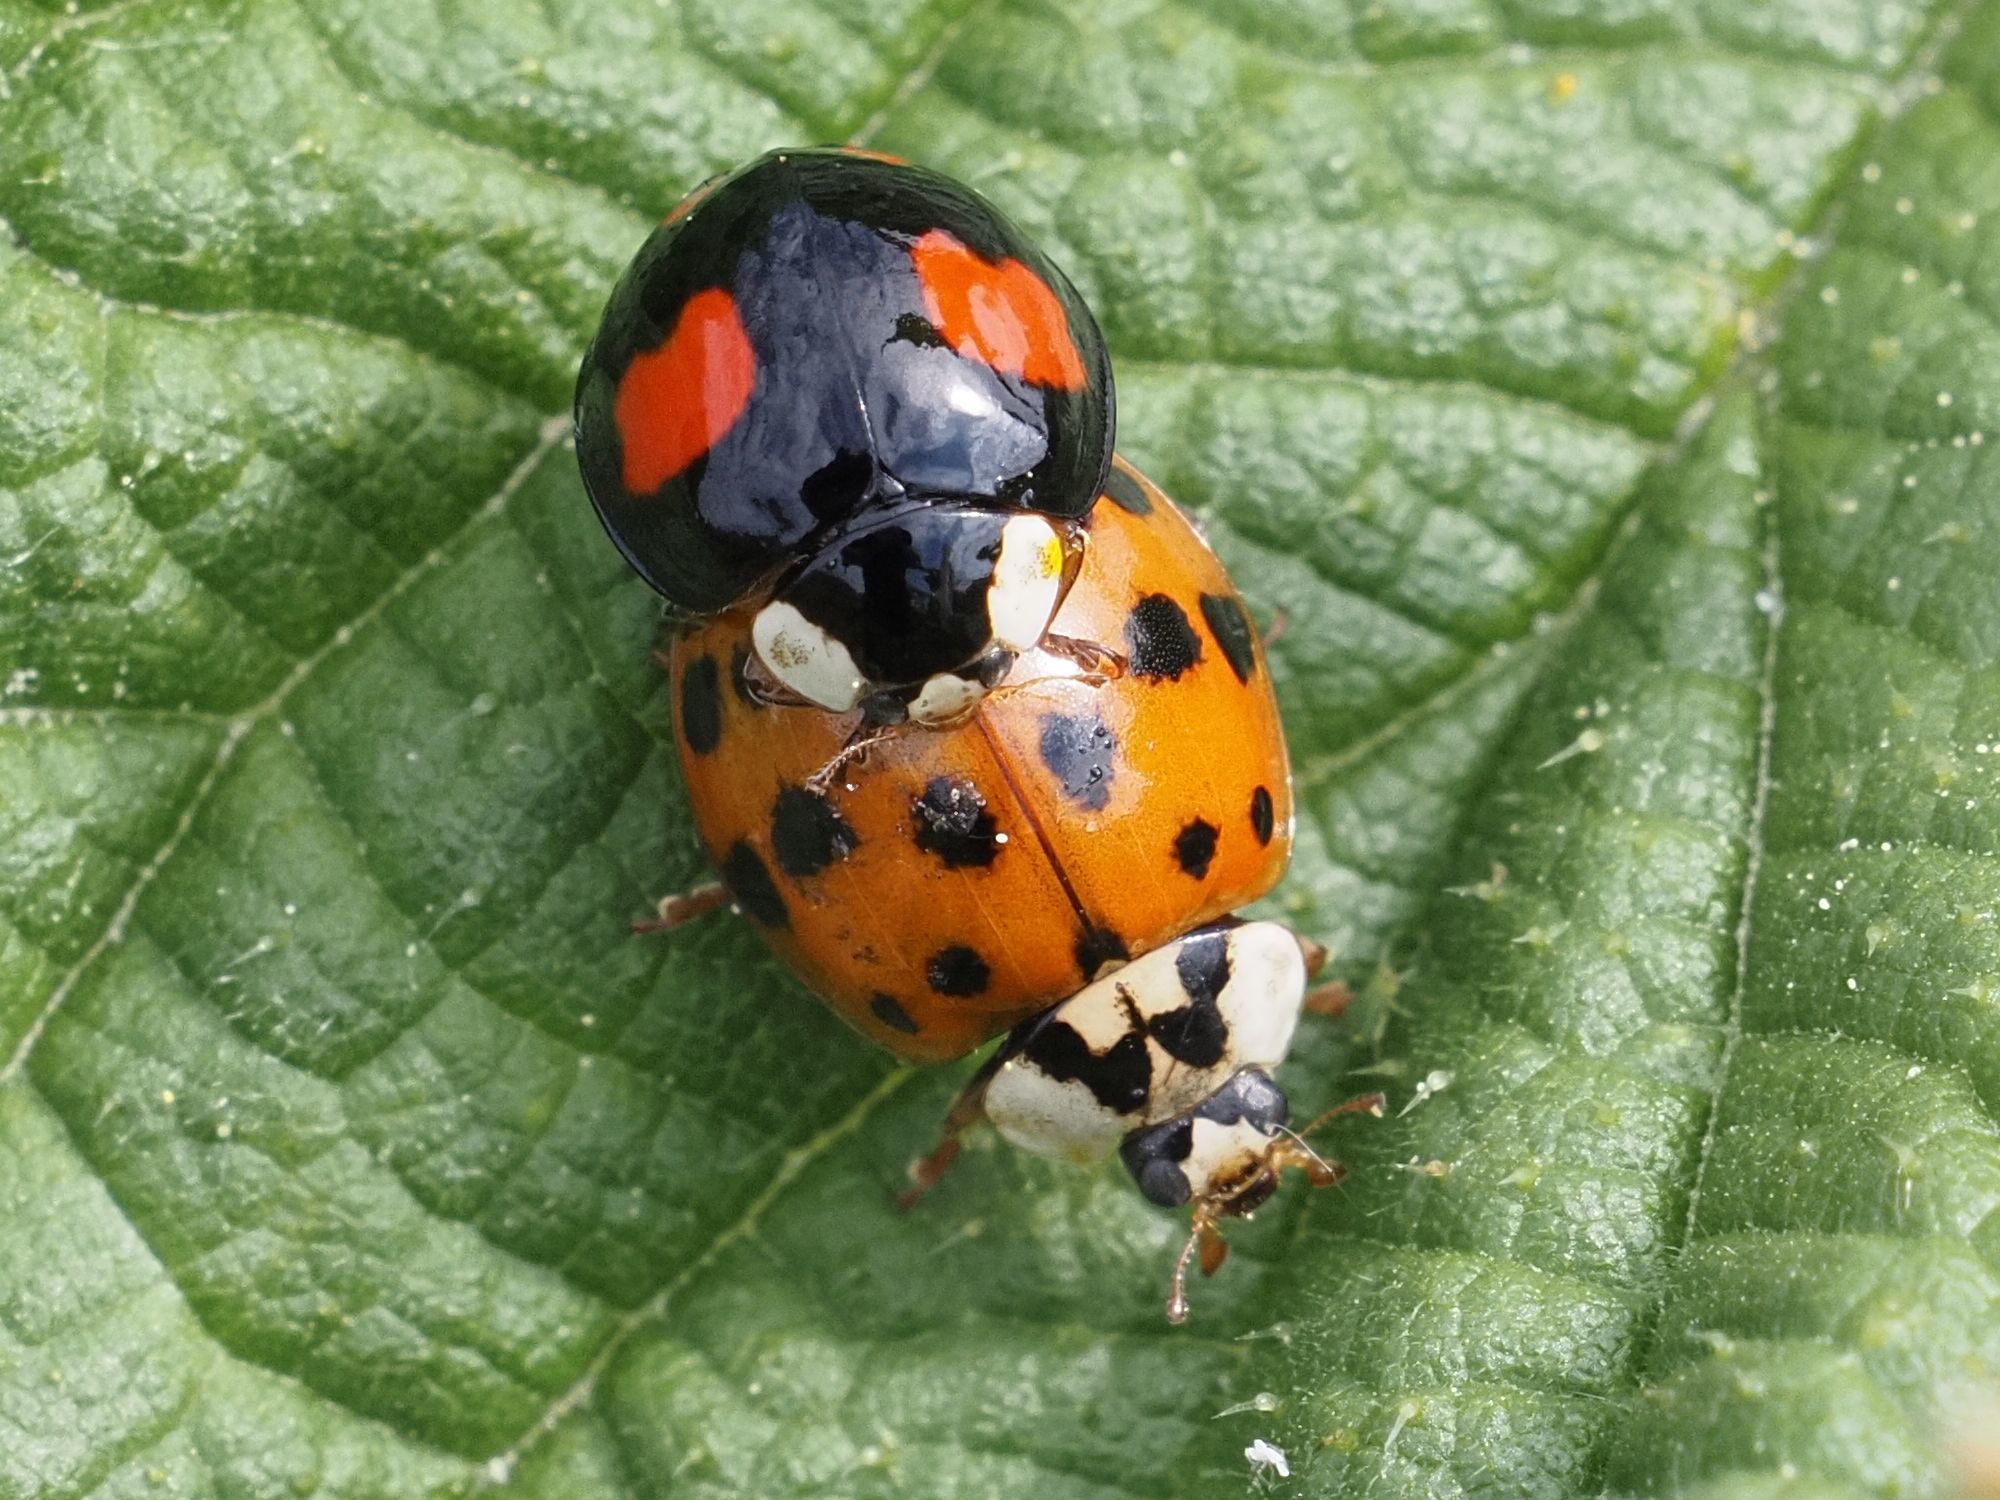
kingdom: Animalia
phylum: Arthropoda
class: Insecta
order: Coleoptera
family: Coccinellidae
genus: Harmonia
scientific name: Harmonia axyridis
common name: Harlequin ladybird
